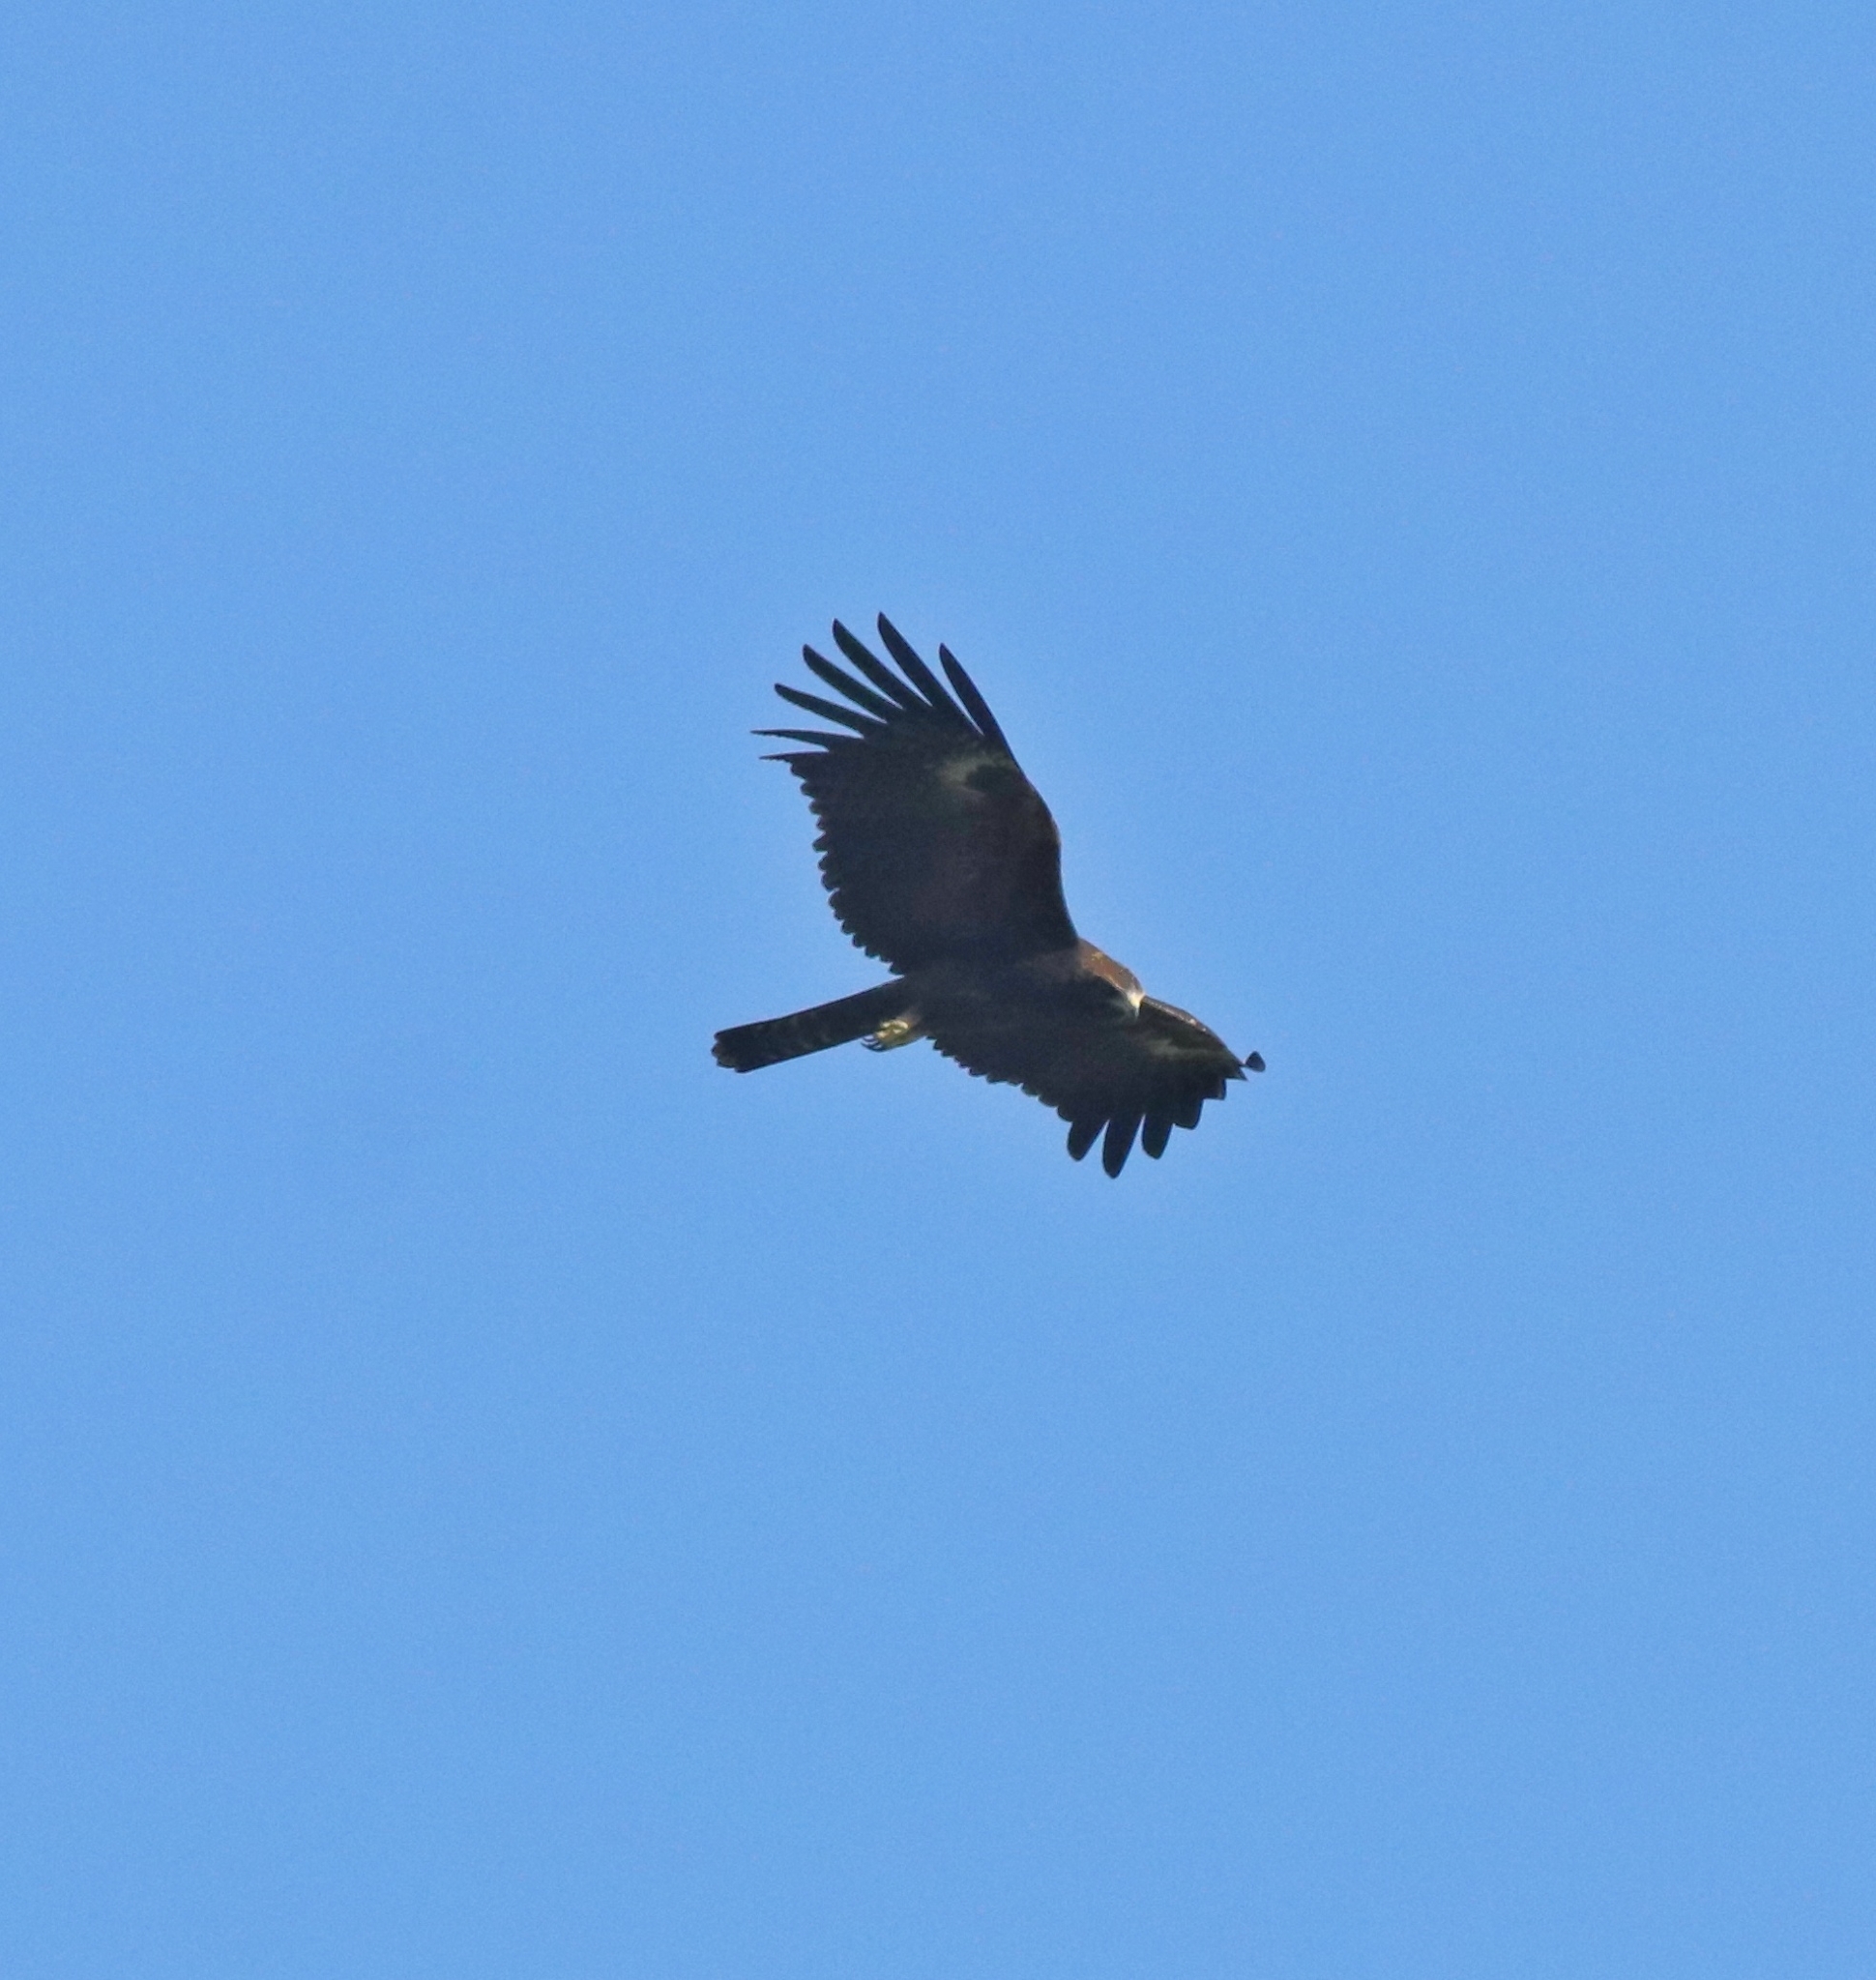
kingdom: Animalia
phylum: Chordata
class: Aves
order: Accipitriformes
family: Accipitridae
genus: Ictinaetus
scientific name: Ictinaetus malayensis
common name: Black eagle
